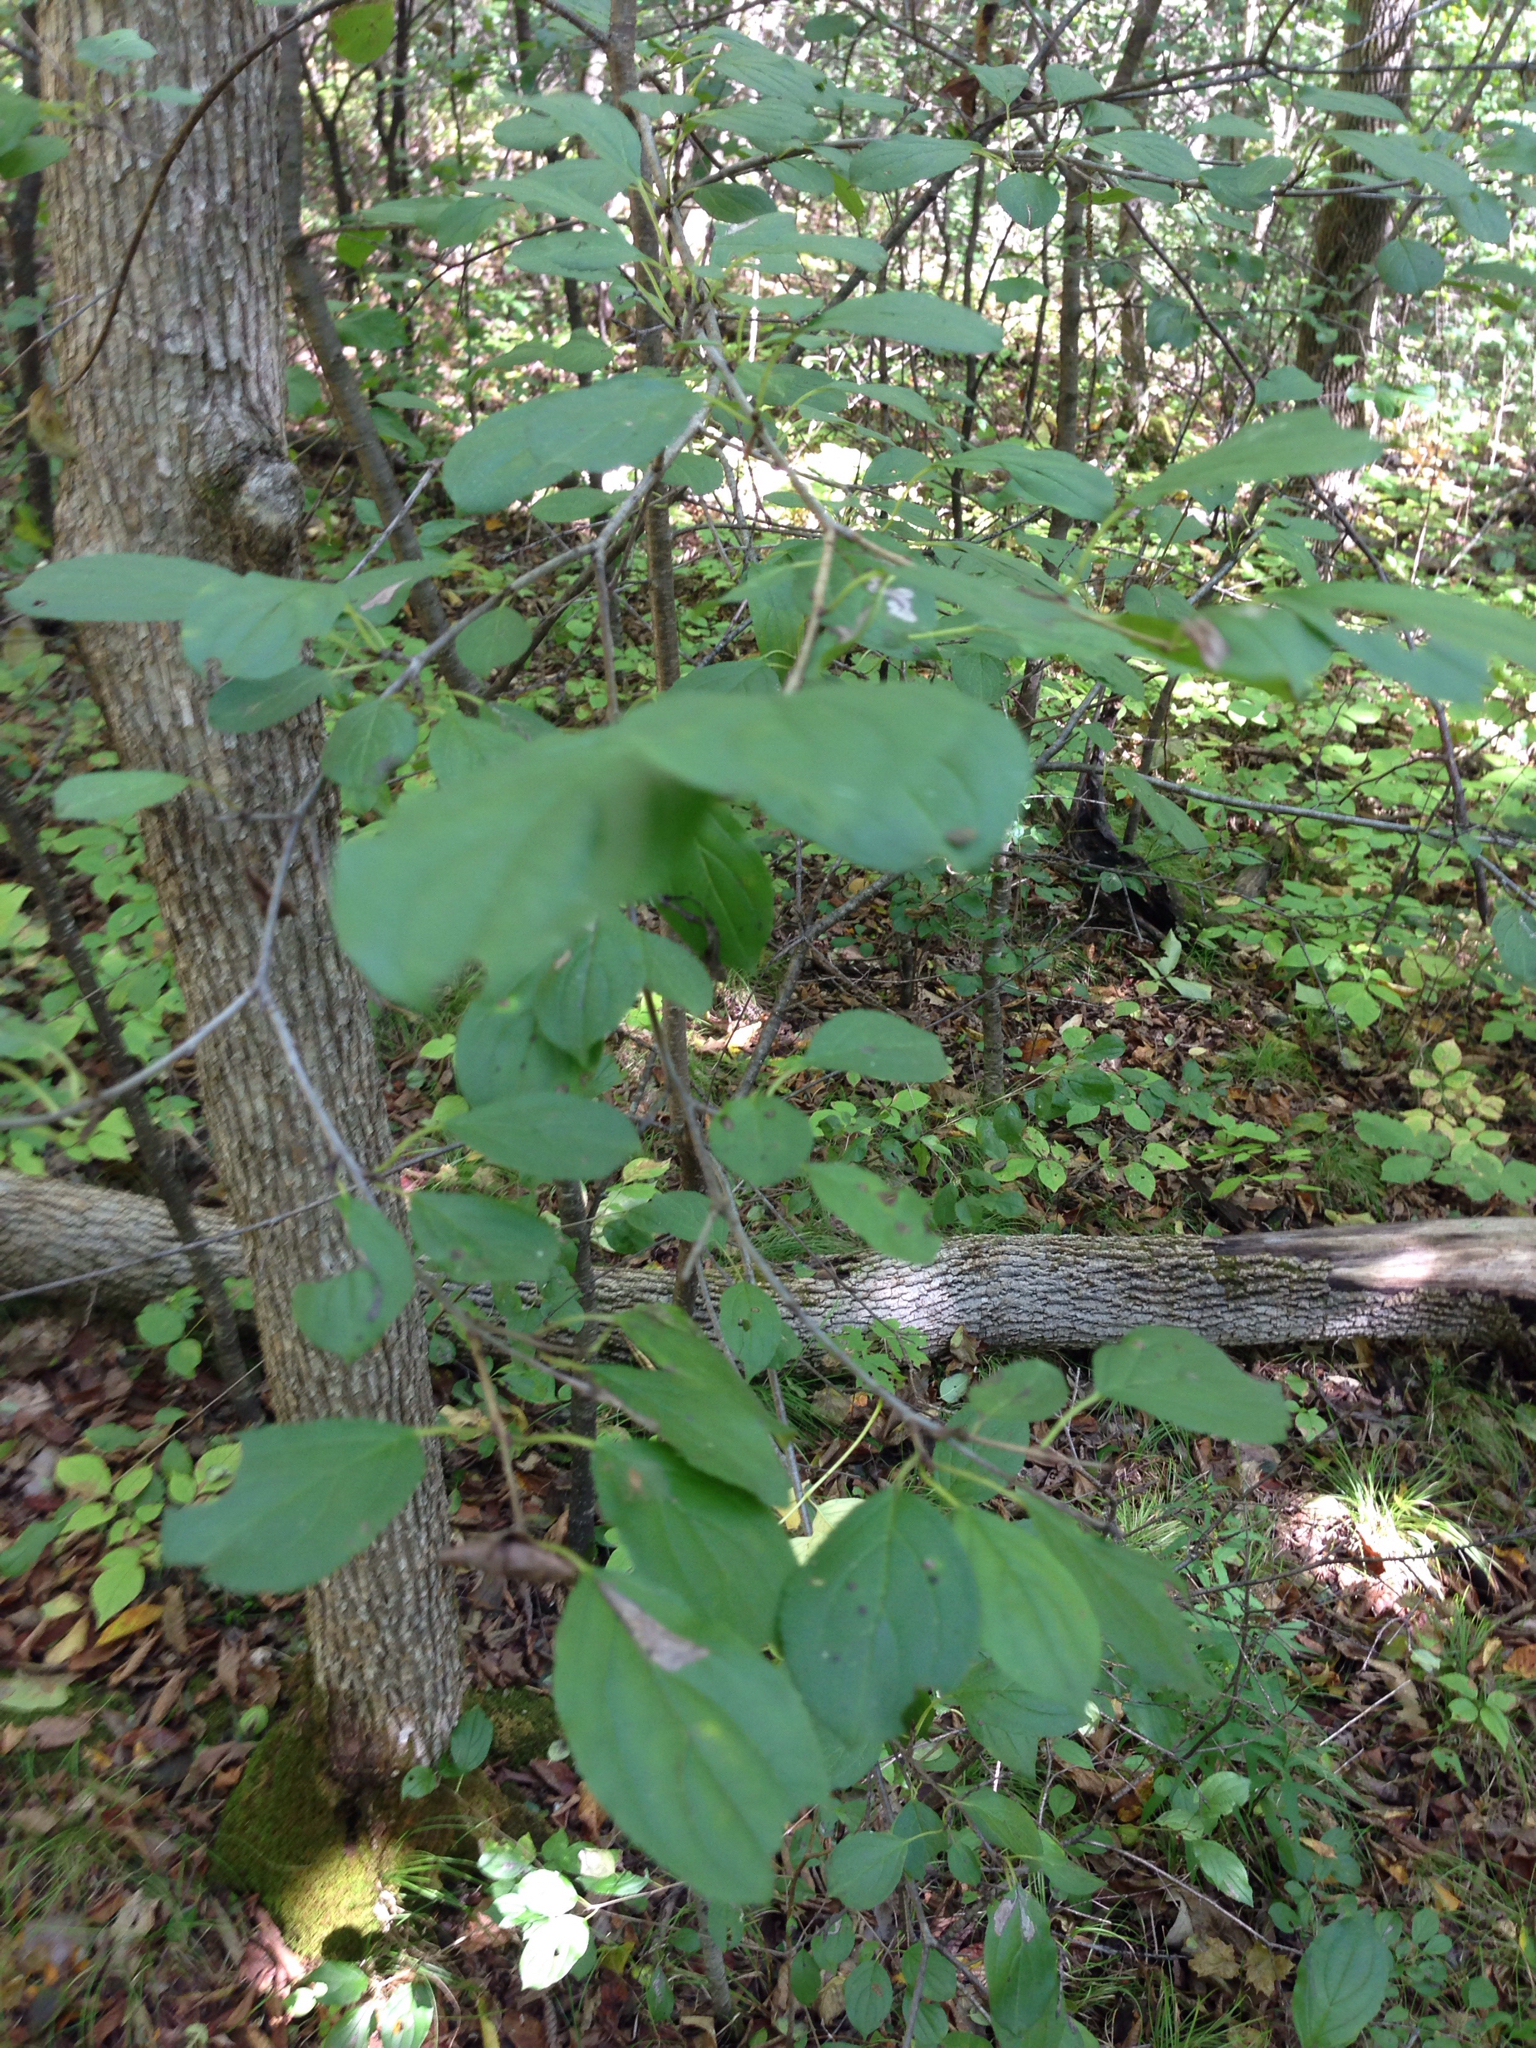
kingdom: Plantae
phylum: Tracheophyta
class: Magnoliopsida
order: Rosales
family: Rhamnaceae
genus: Rhamnus
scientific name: Rhamnus cathartica
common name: Common buckthorn
